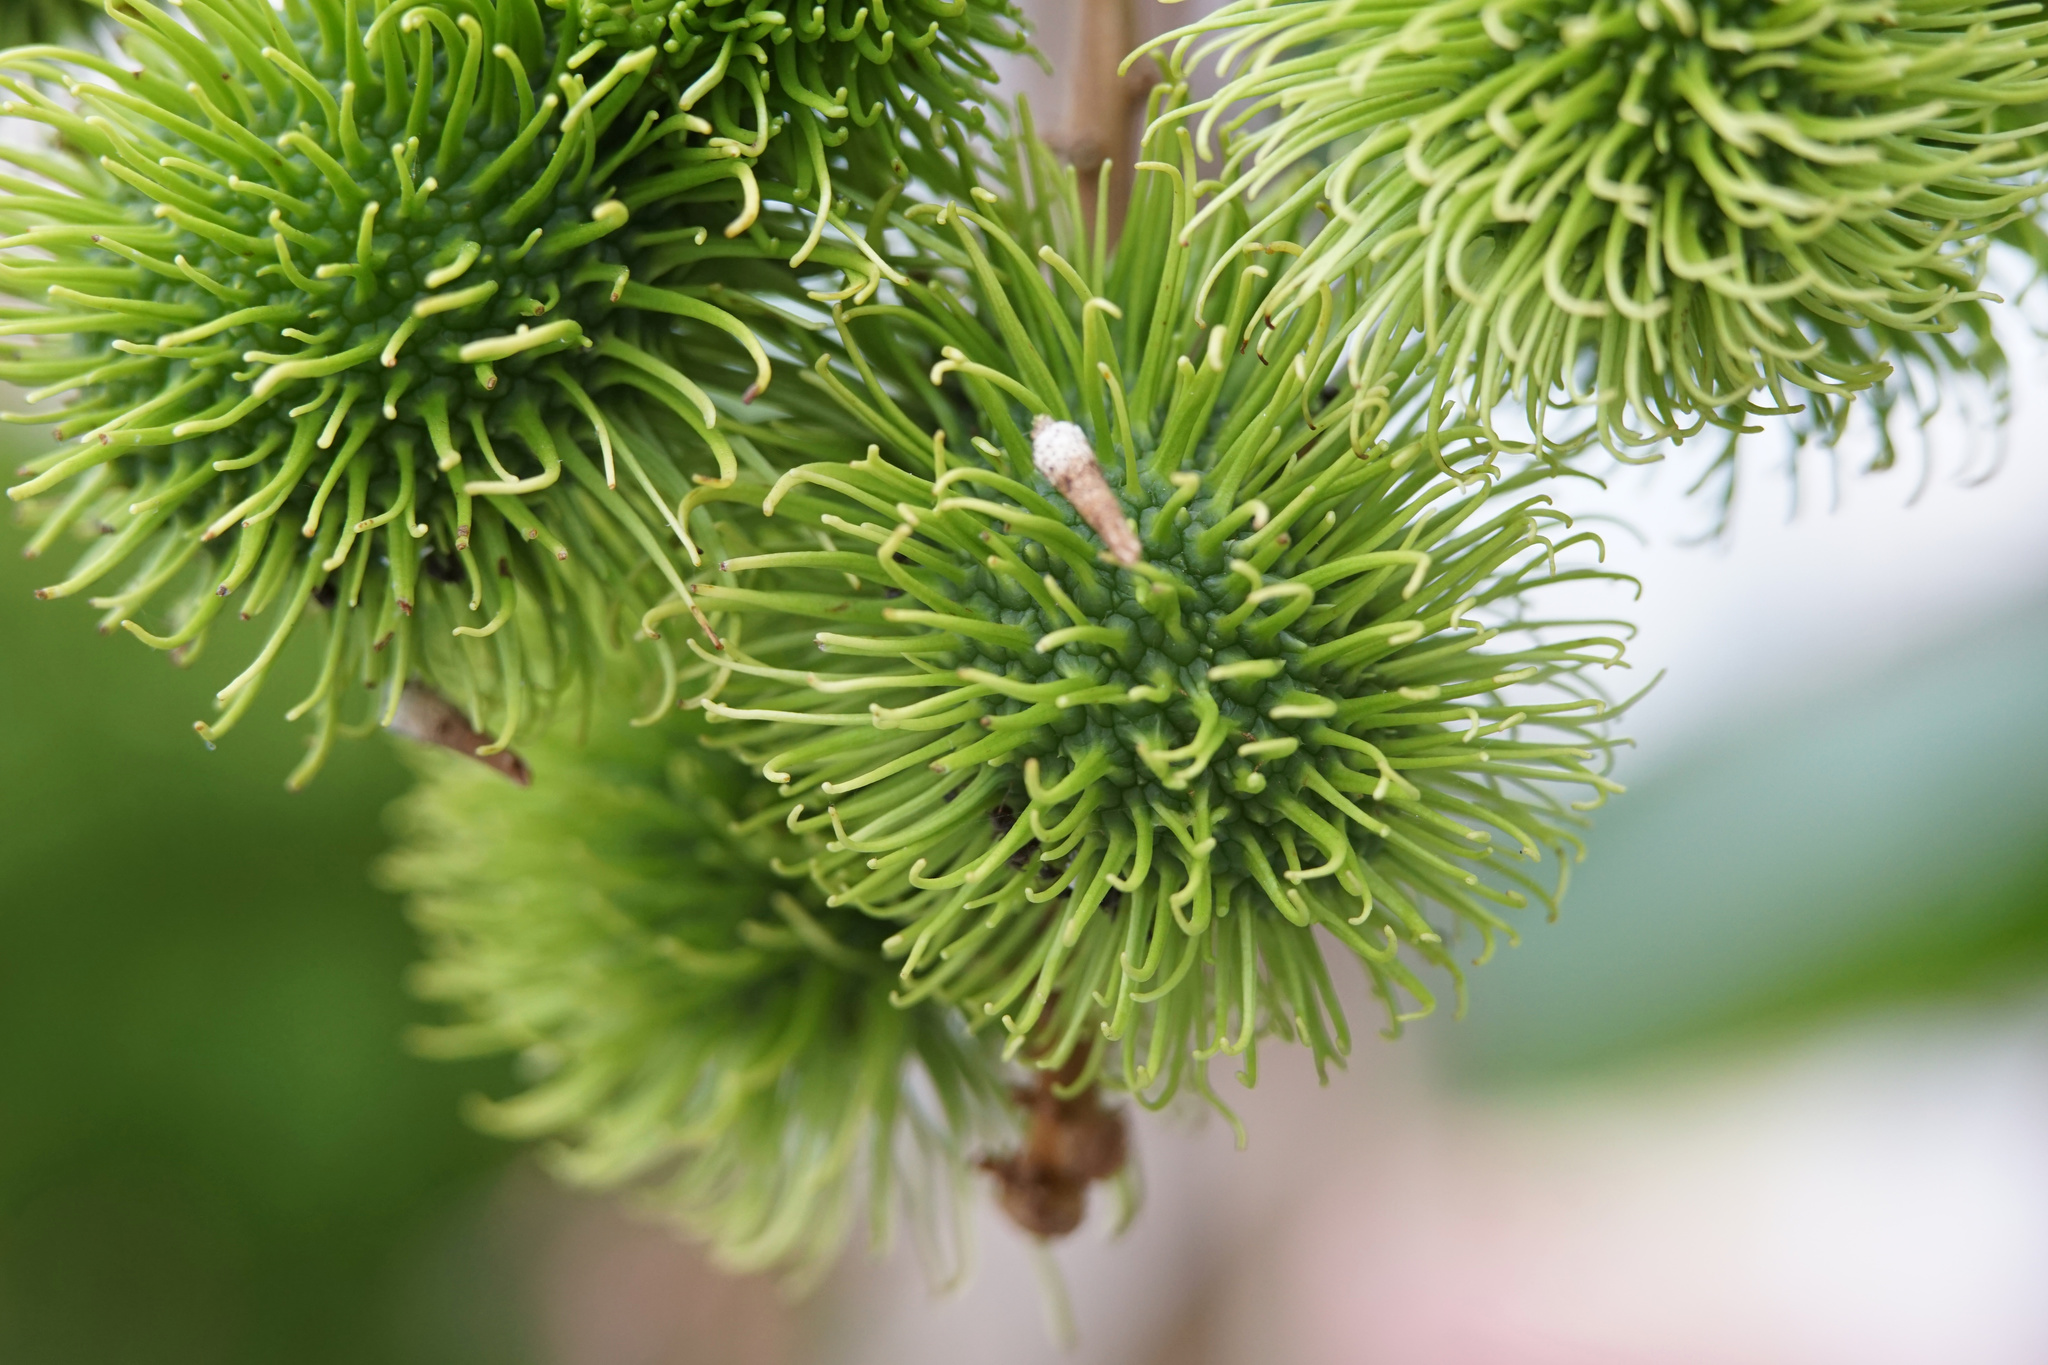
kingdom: Plantae
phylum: Tracheophyta
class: Magnoliopsida
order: Sapindales
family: Sapindaceae
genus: Nephelium
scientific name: Nephelium lappaceum
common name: Rambutan
